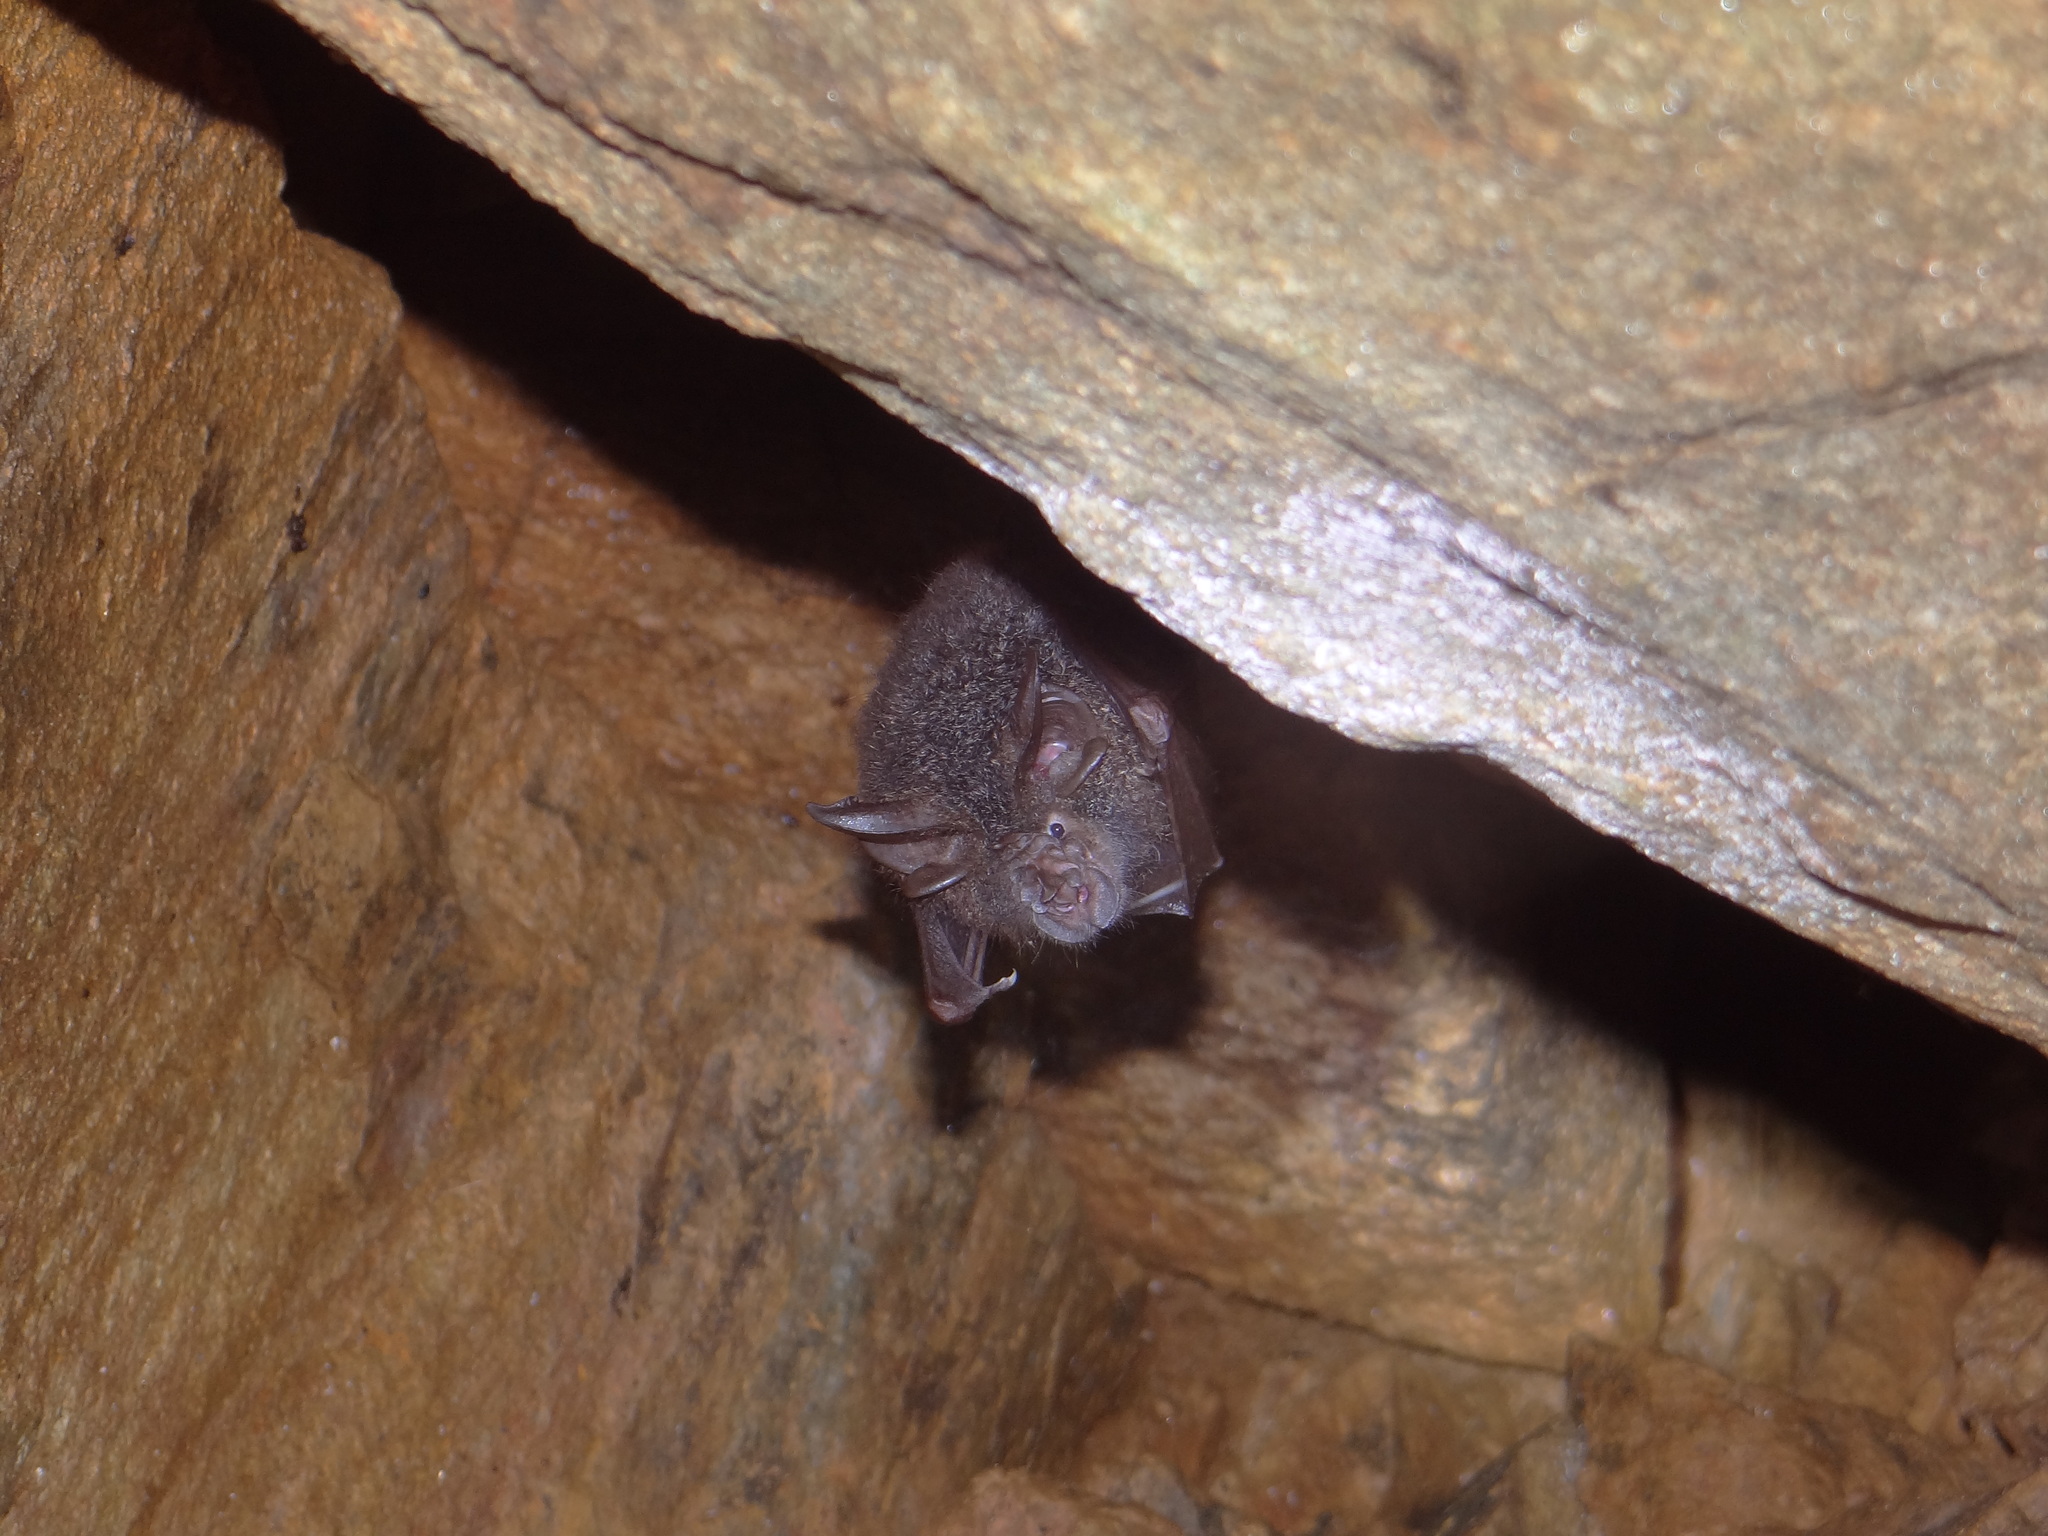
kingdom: Animalia
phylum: Chordata
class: Mammalia
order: Chiroptera
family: Rhinolophidae
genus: Rhinolophus
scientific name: Rhinolophus beddomei
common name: Bedomme's horseshoe bat
